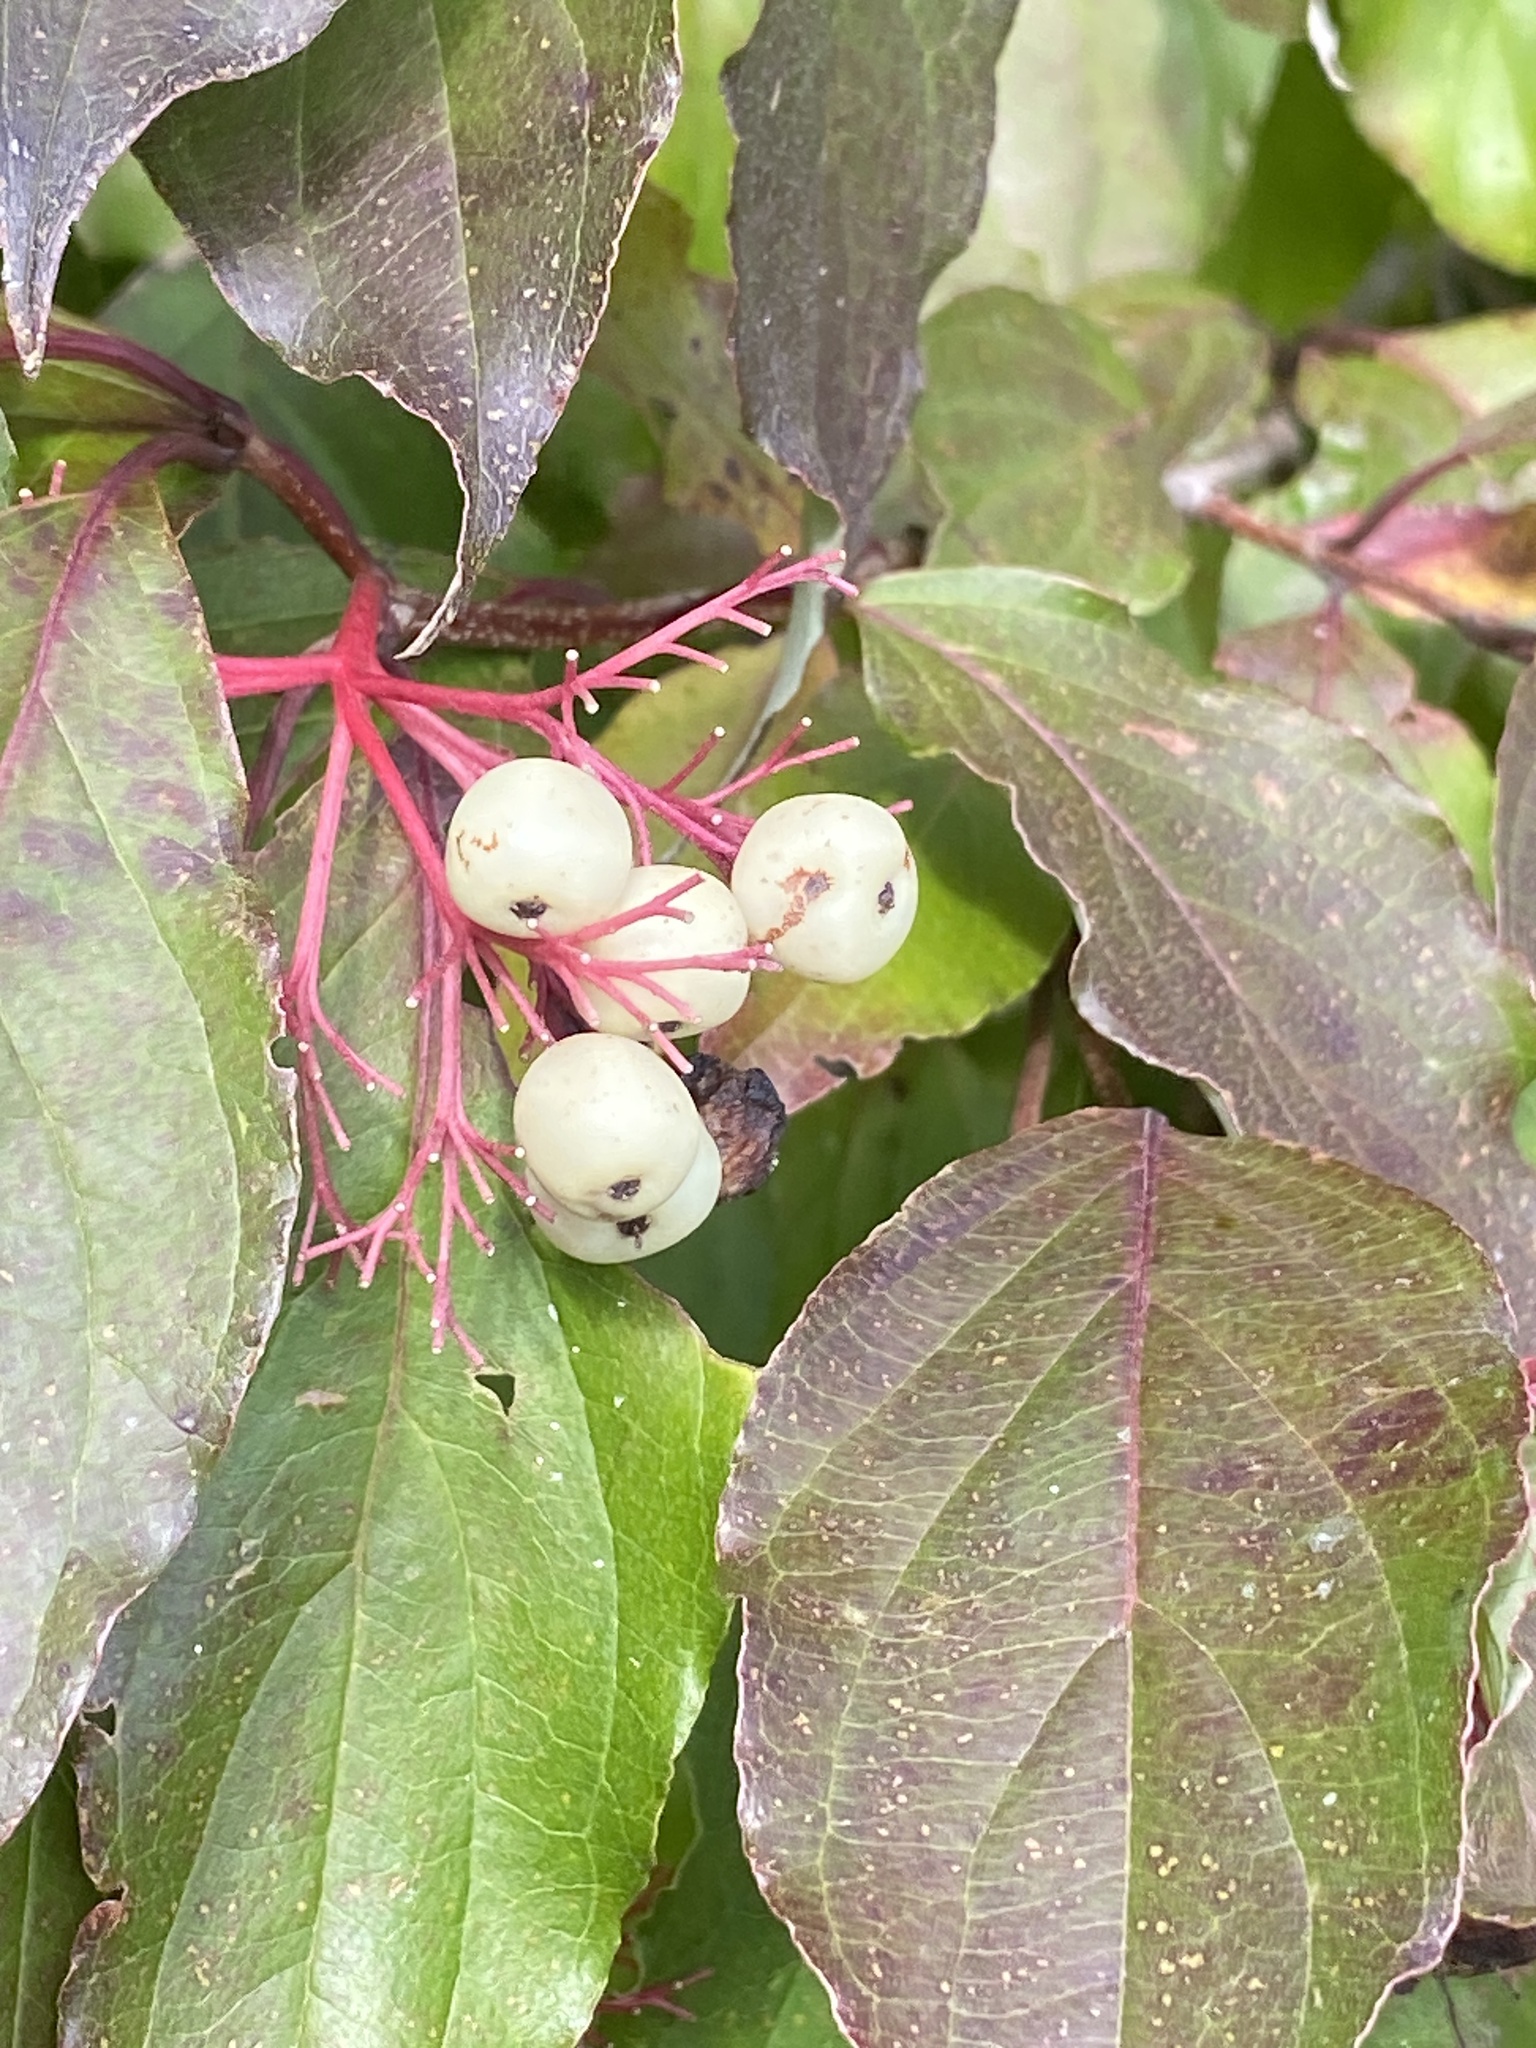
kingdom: Plantae
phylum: Tracheophyta
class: Magnoliopsida
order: Cornales
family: Cornaceae
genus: Cornus
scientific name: Cornus racemosa
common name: Panicled dogwood
